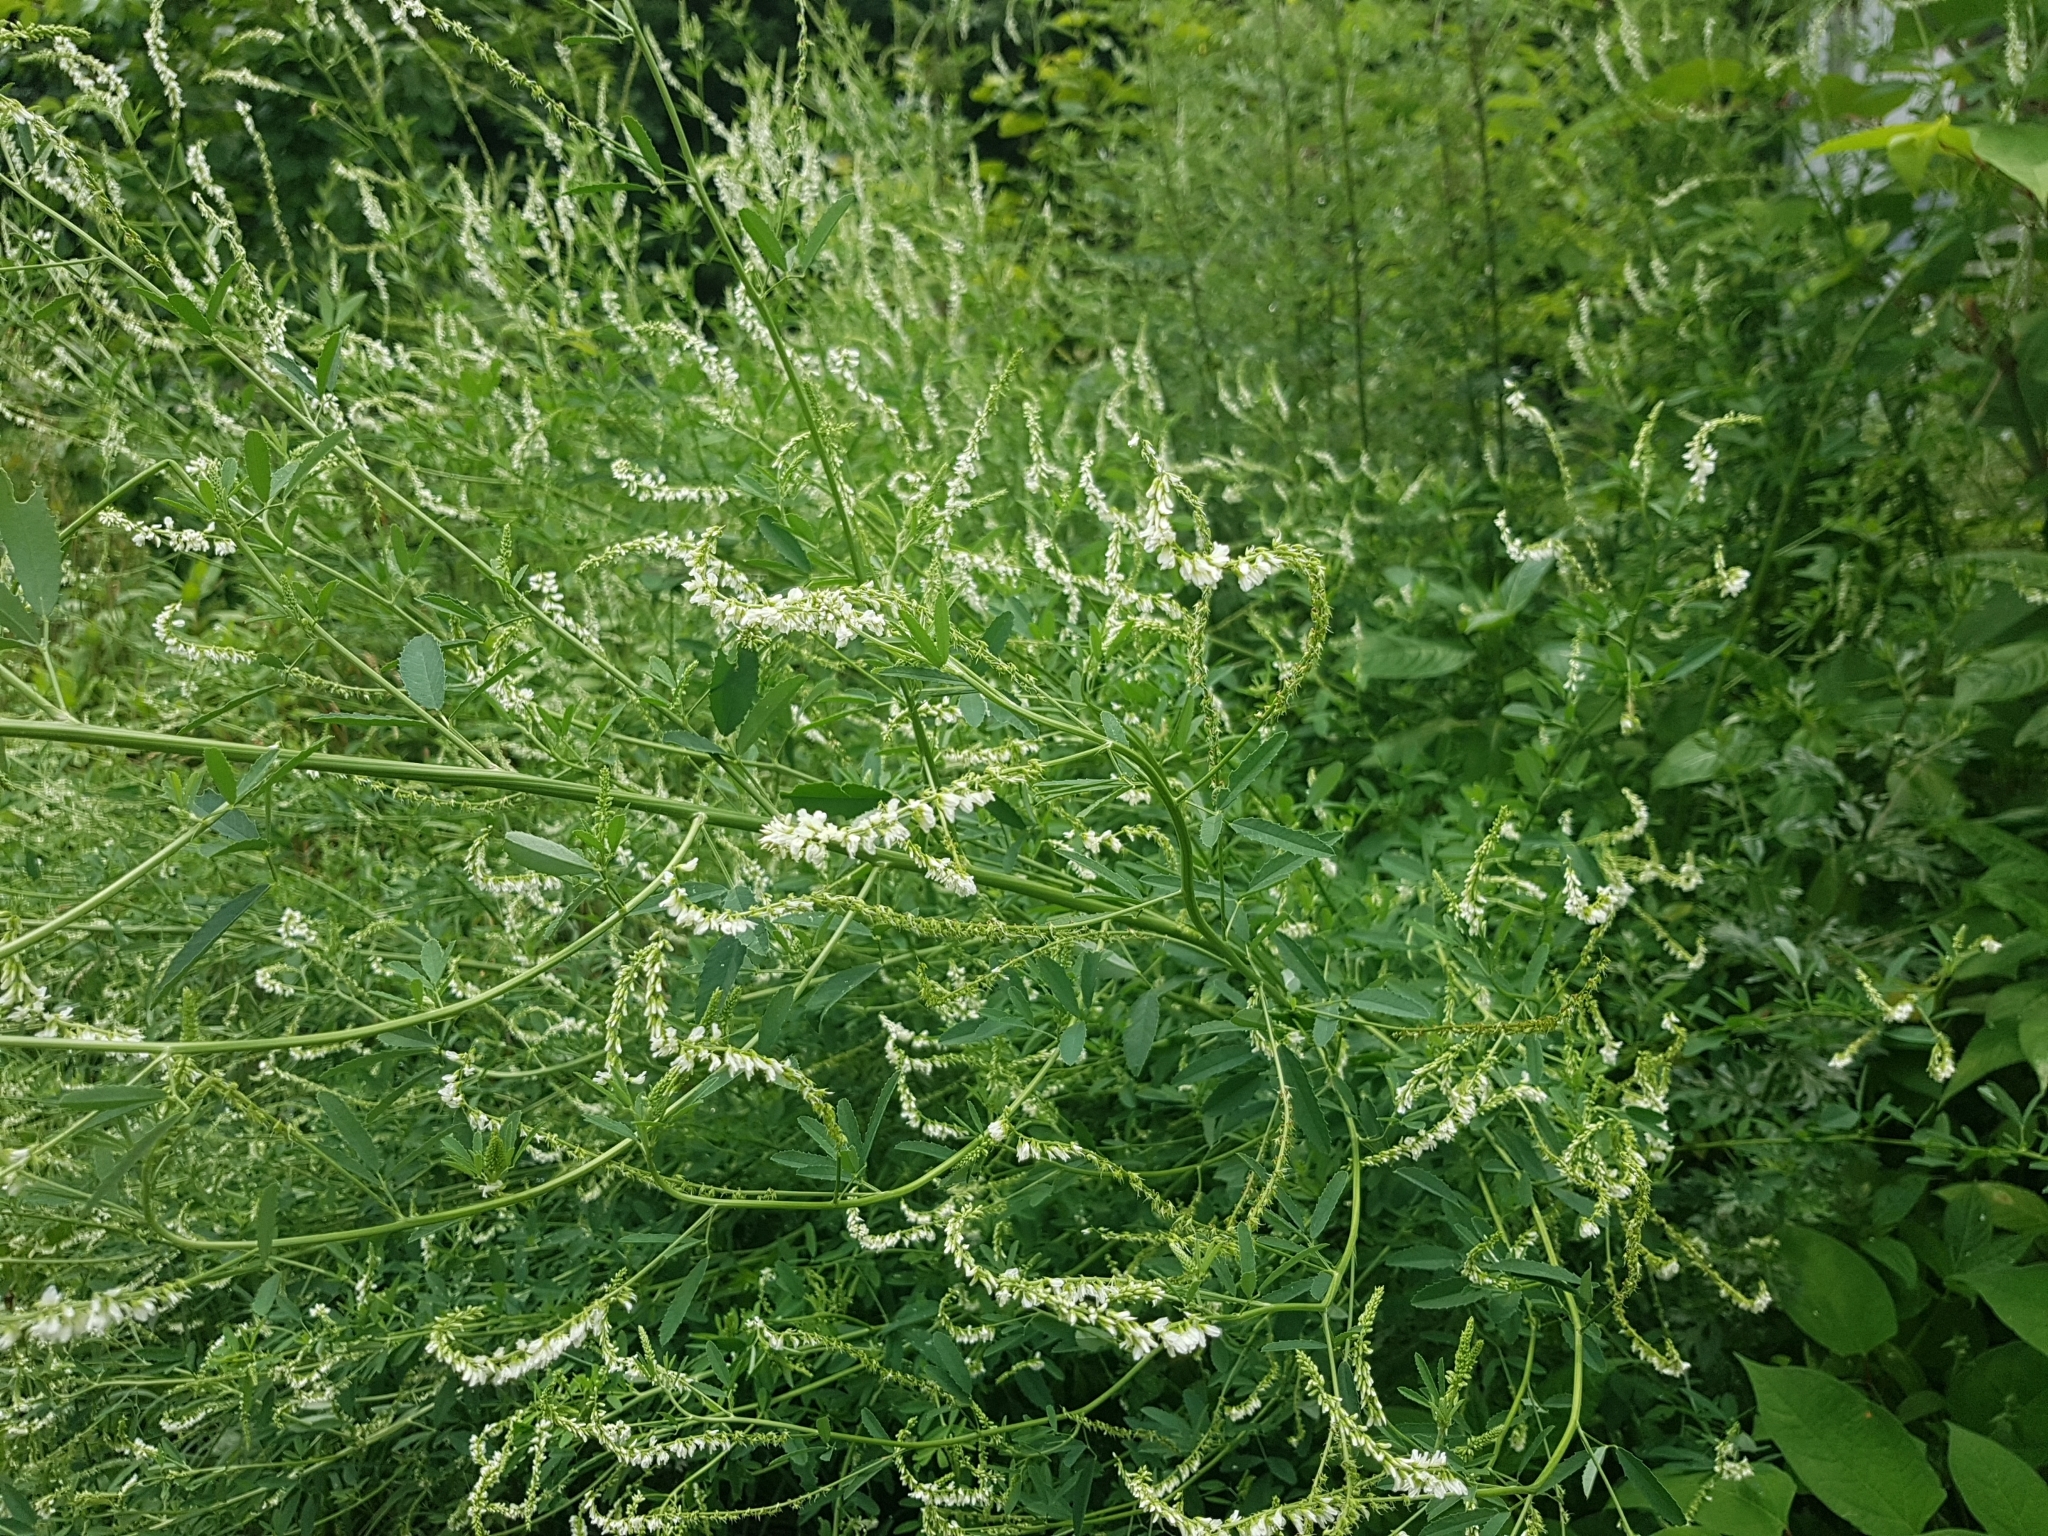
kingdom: Plantae
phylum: Tracheophyta
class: Magnoliopsida
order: Fabales
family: Fabaceae
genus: Melilotus
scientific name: Melilotus albus
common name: White melilot
